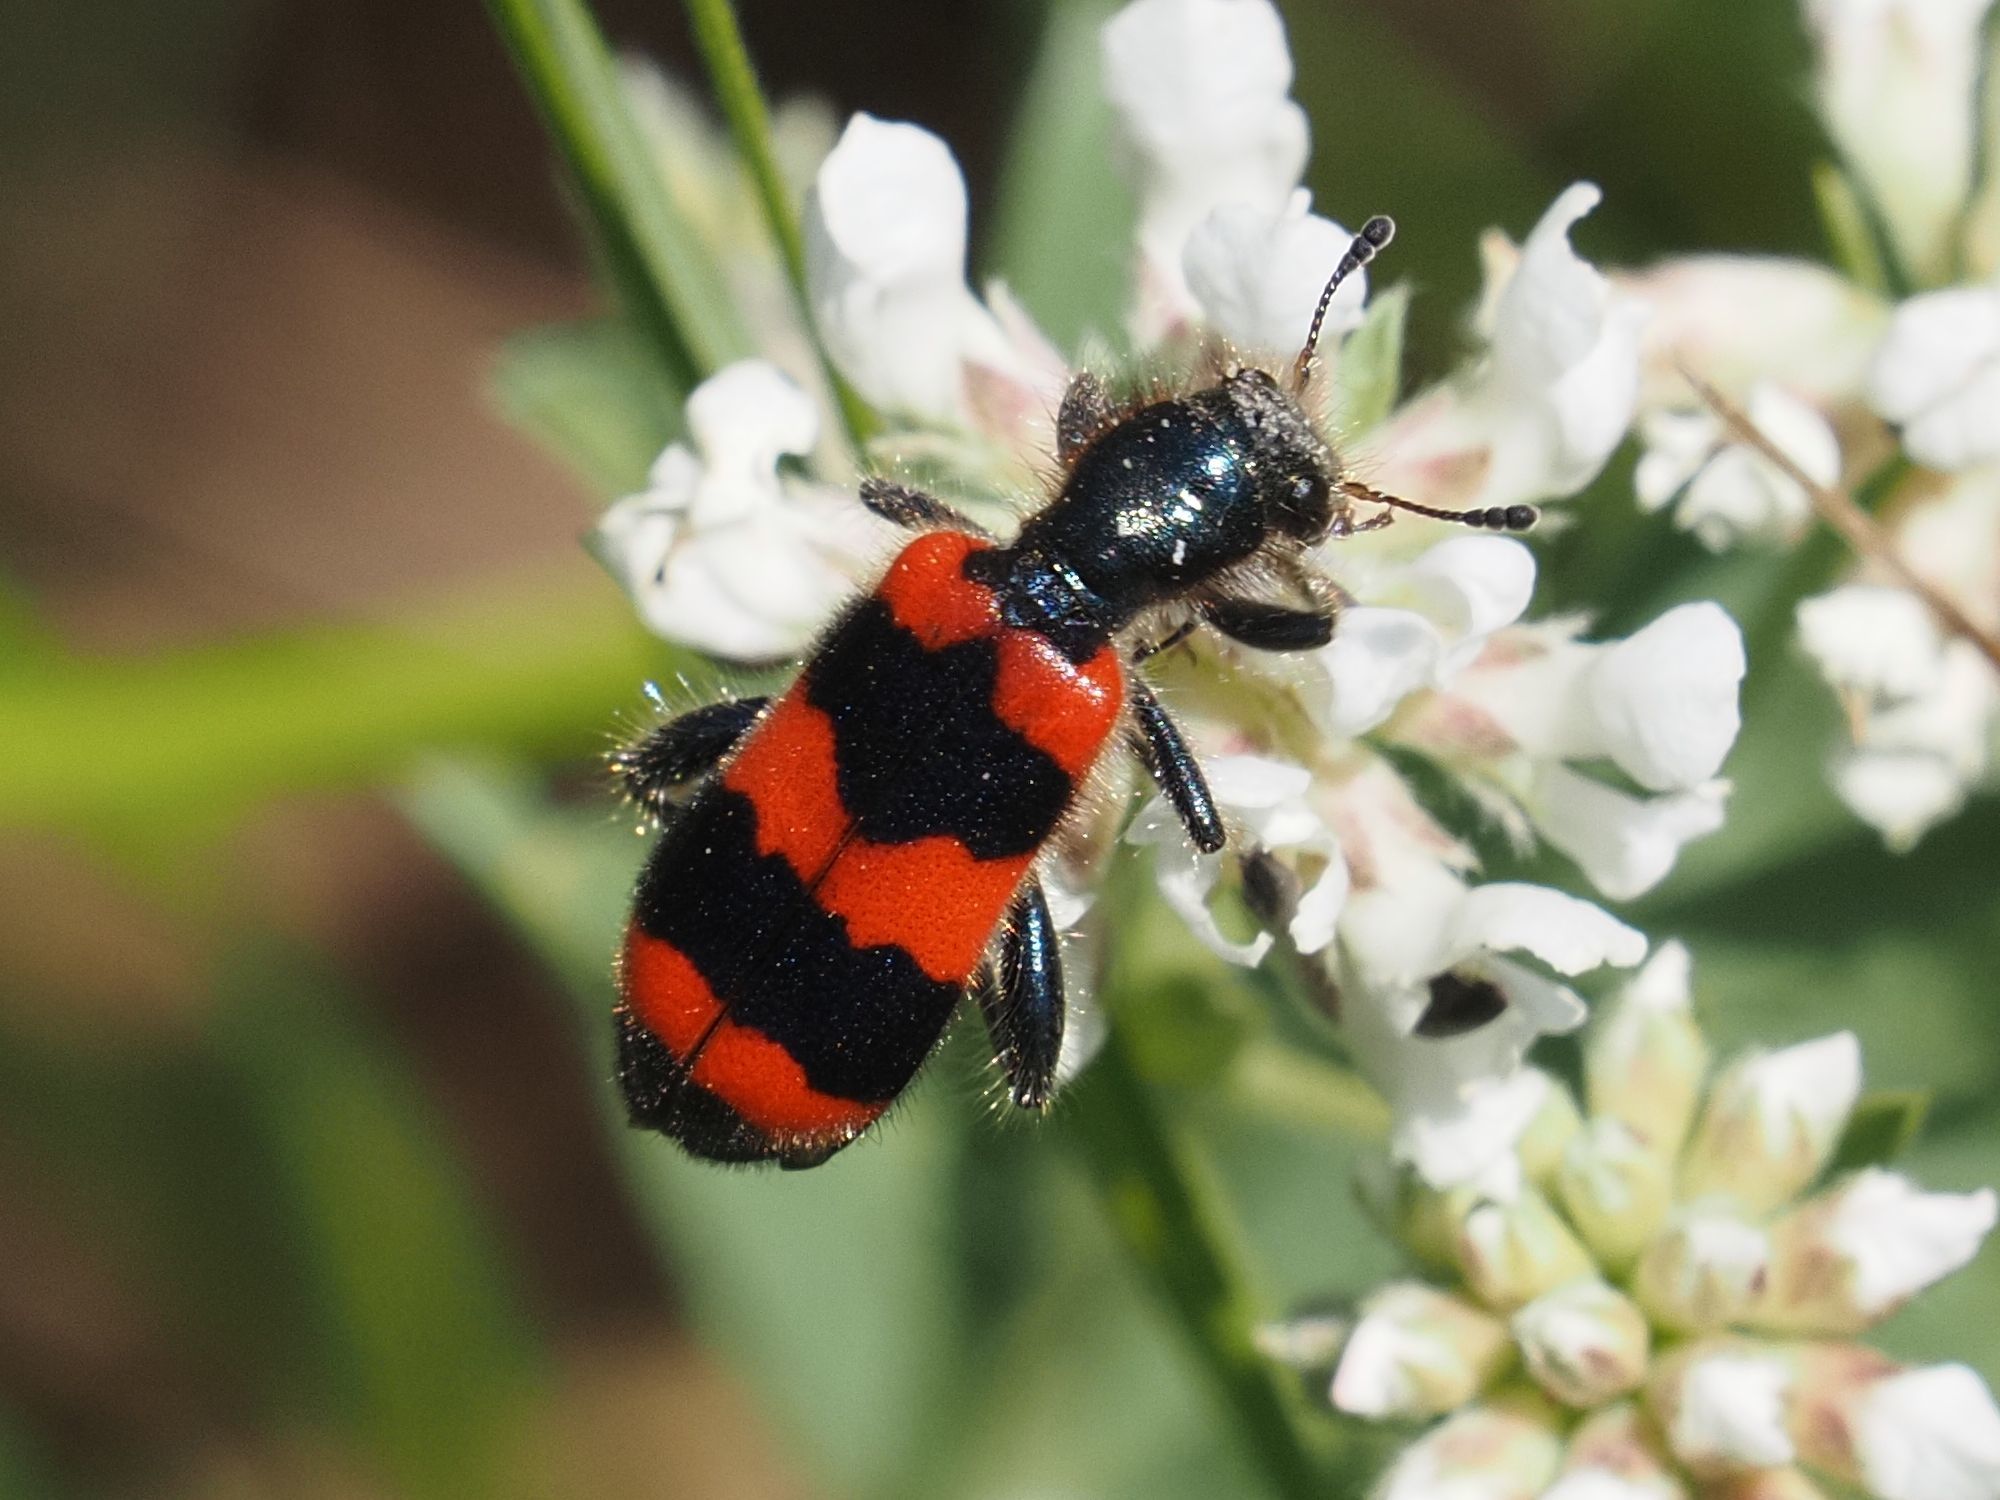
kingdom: Animalia
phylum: Arthropoda
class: Insecta
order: Coleoptera
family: Cleridae
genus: Trichodes
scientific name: Trichodes apiarius
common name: Bee-eating beetle
